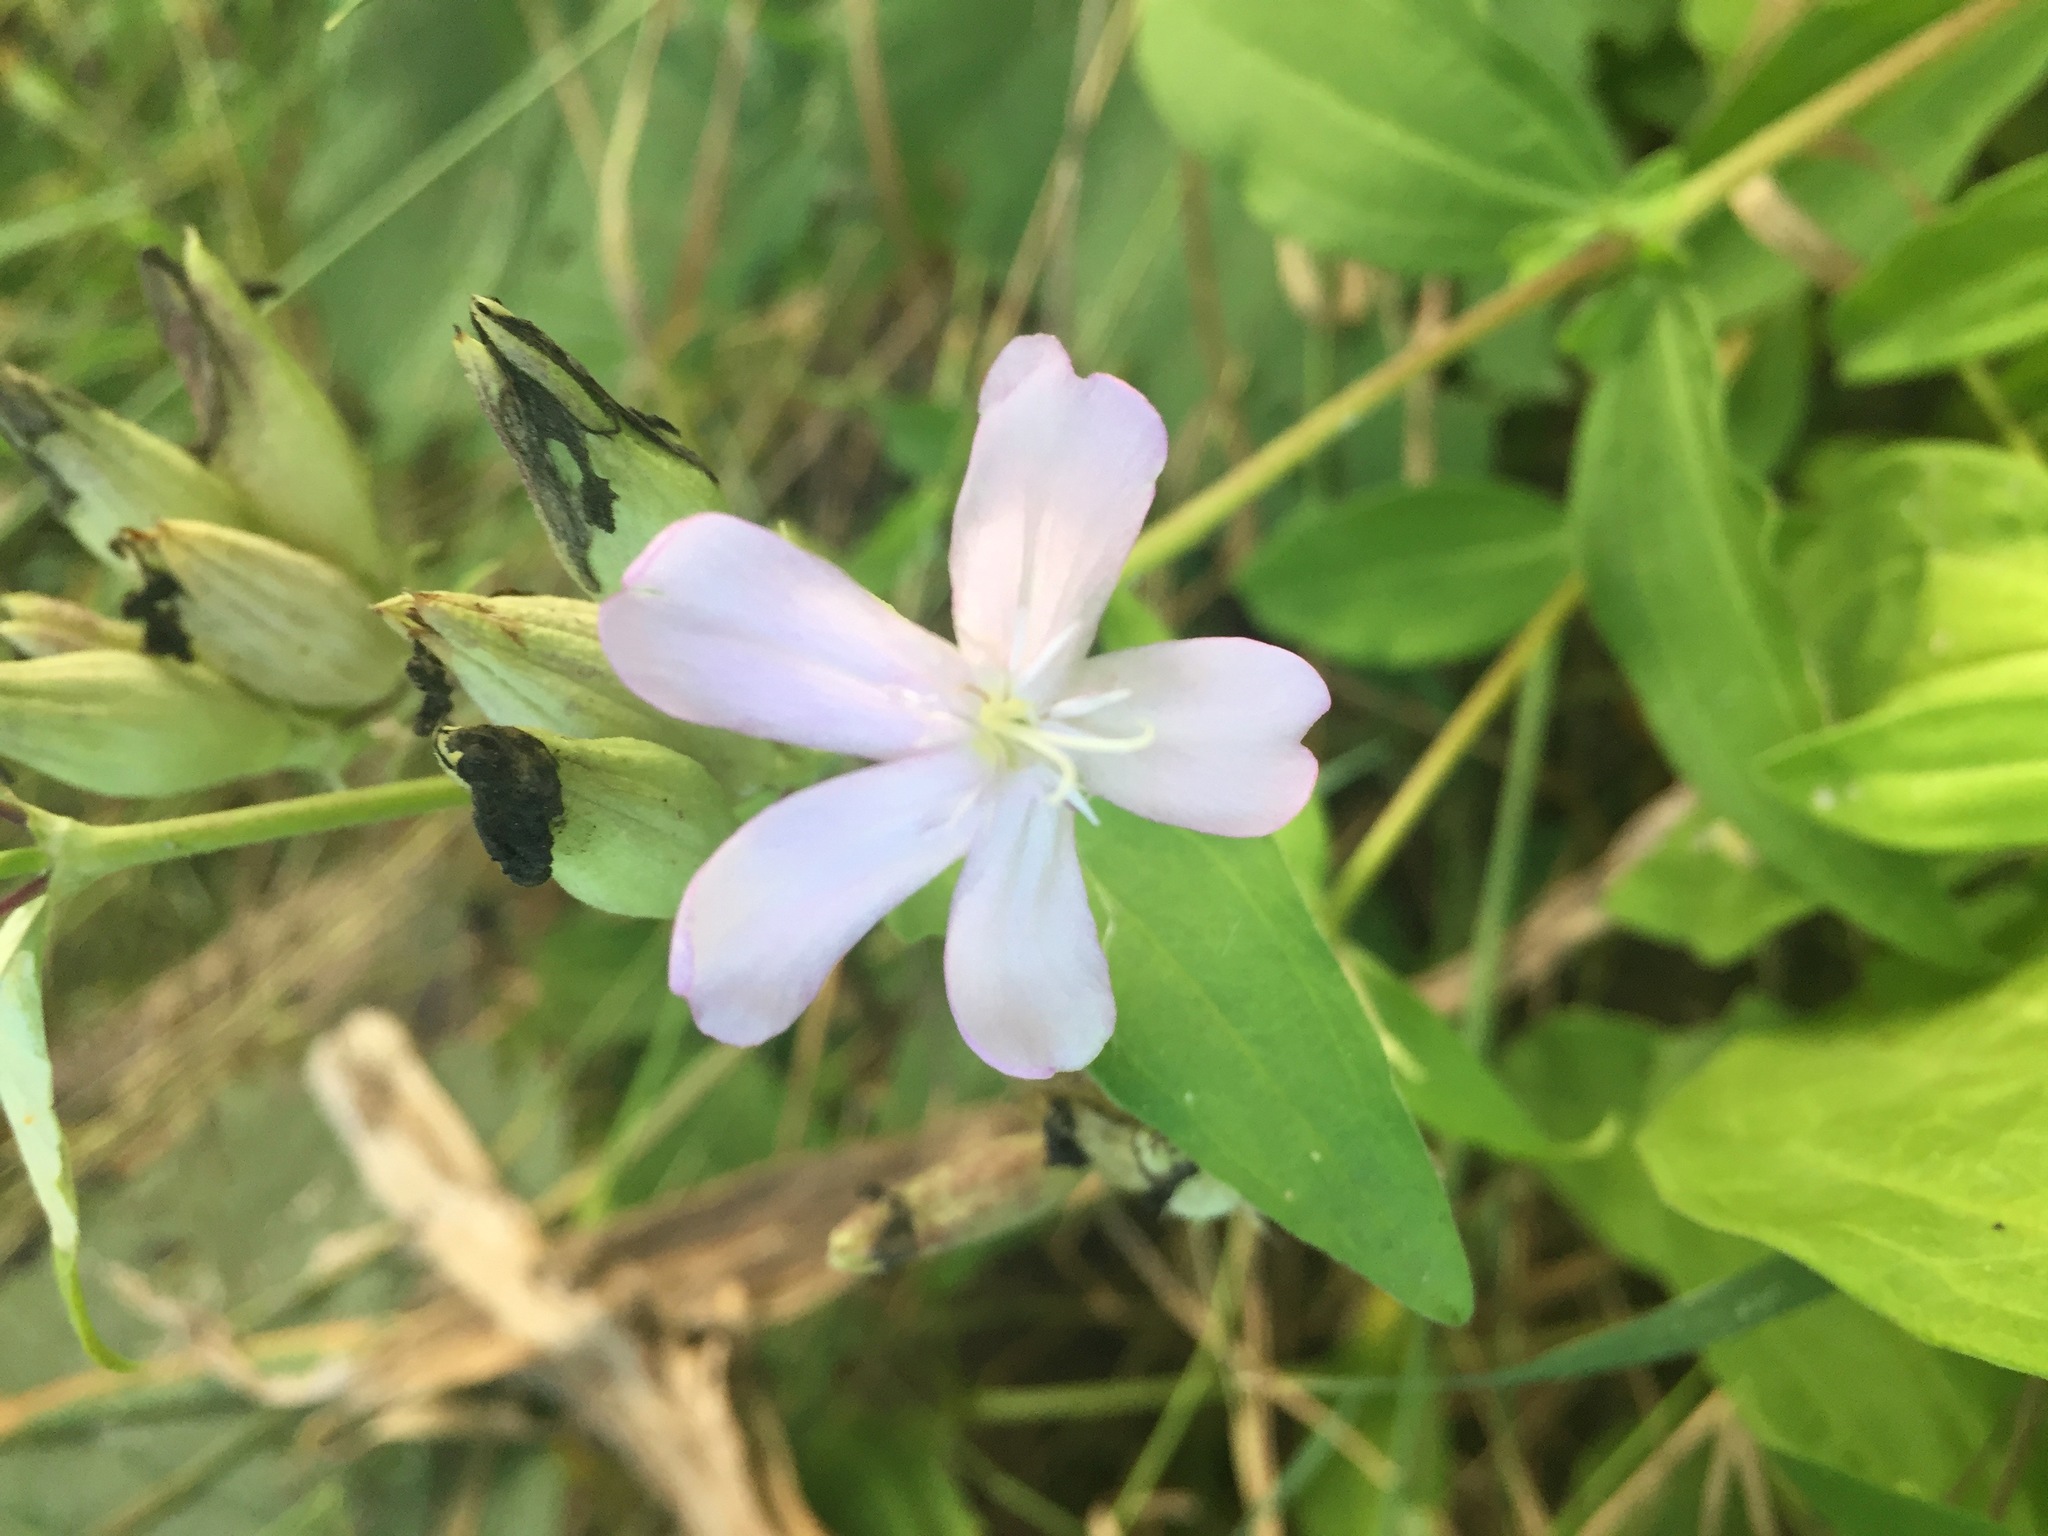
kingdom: Plantae
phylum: Tracheophyta
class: Magnoliopsida
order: Caryophyllales
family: Caryophyllaceae
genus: Saponaria
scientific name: Saponaria officinalis
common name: Soapwort
